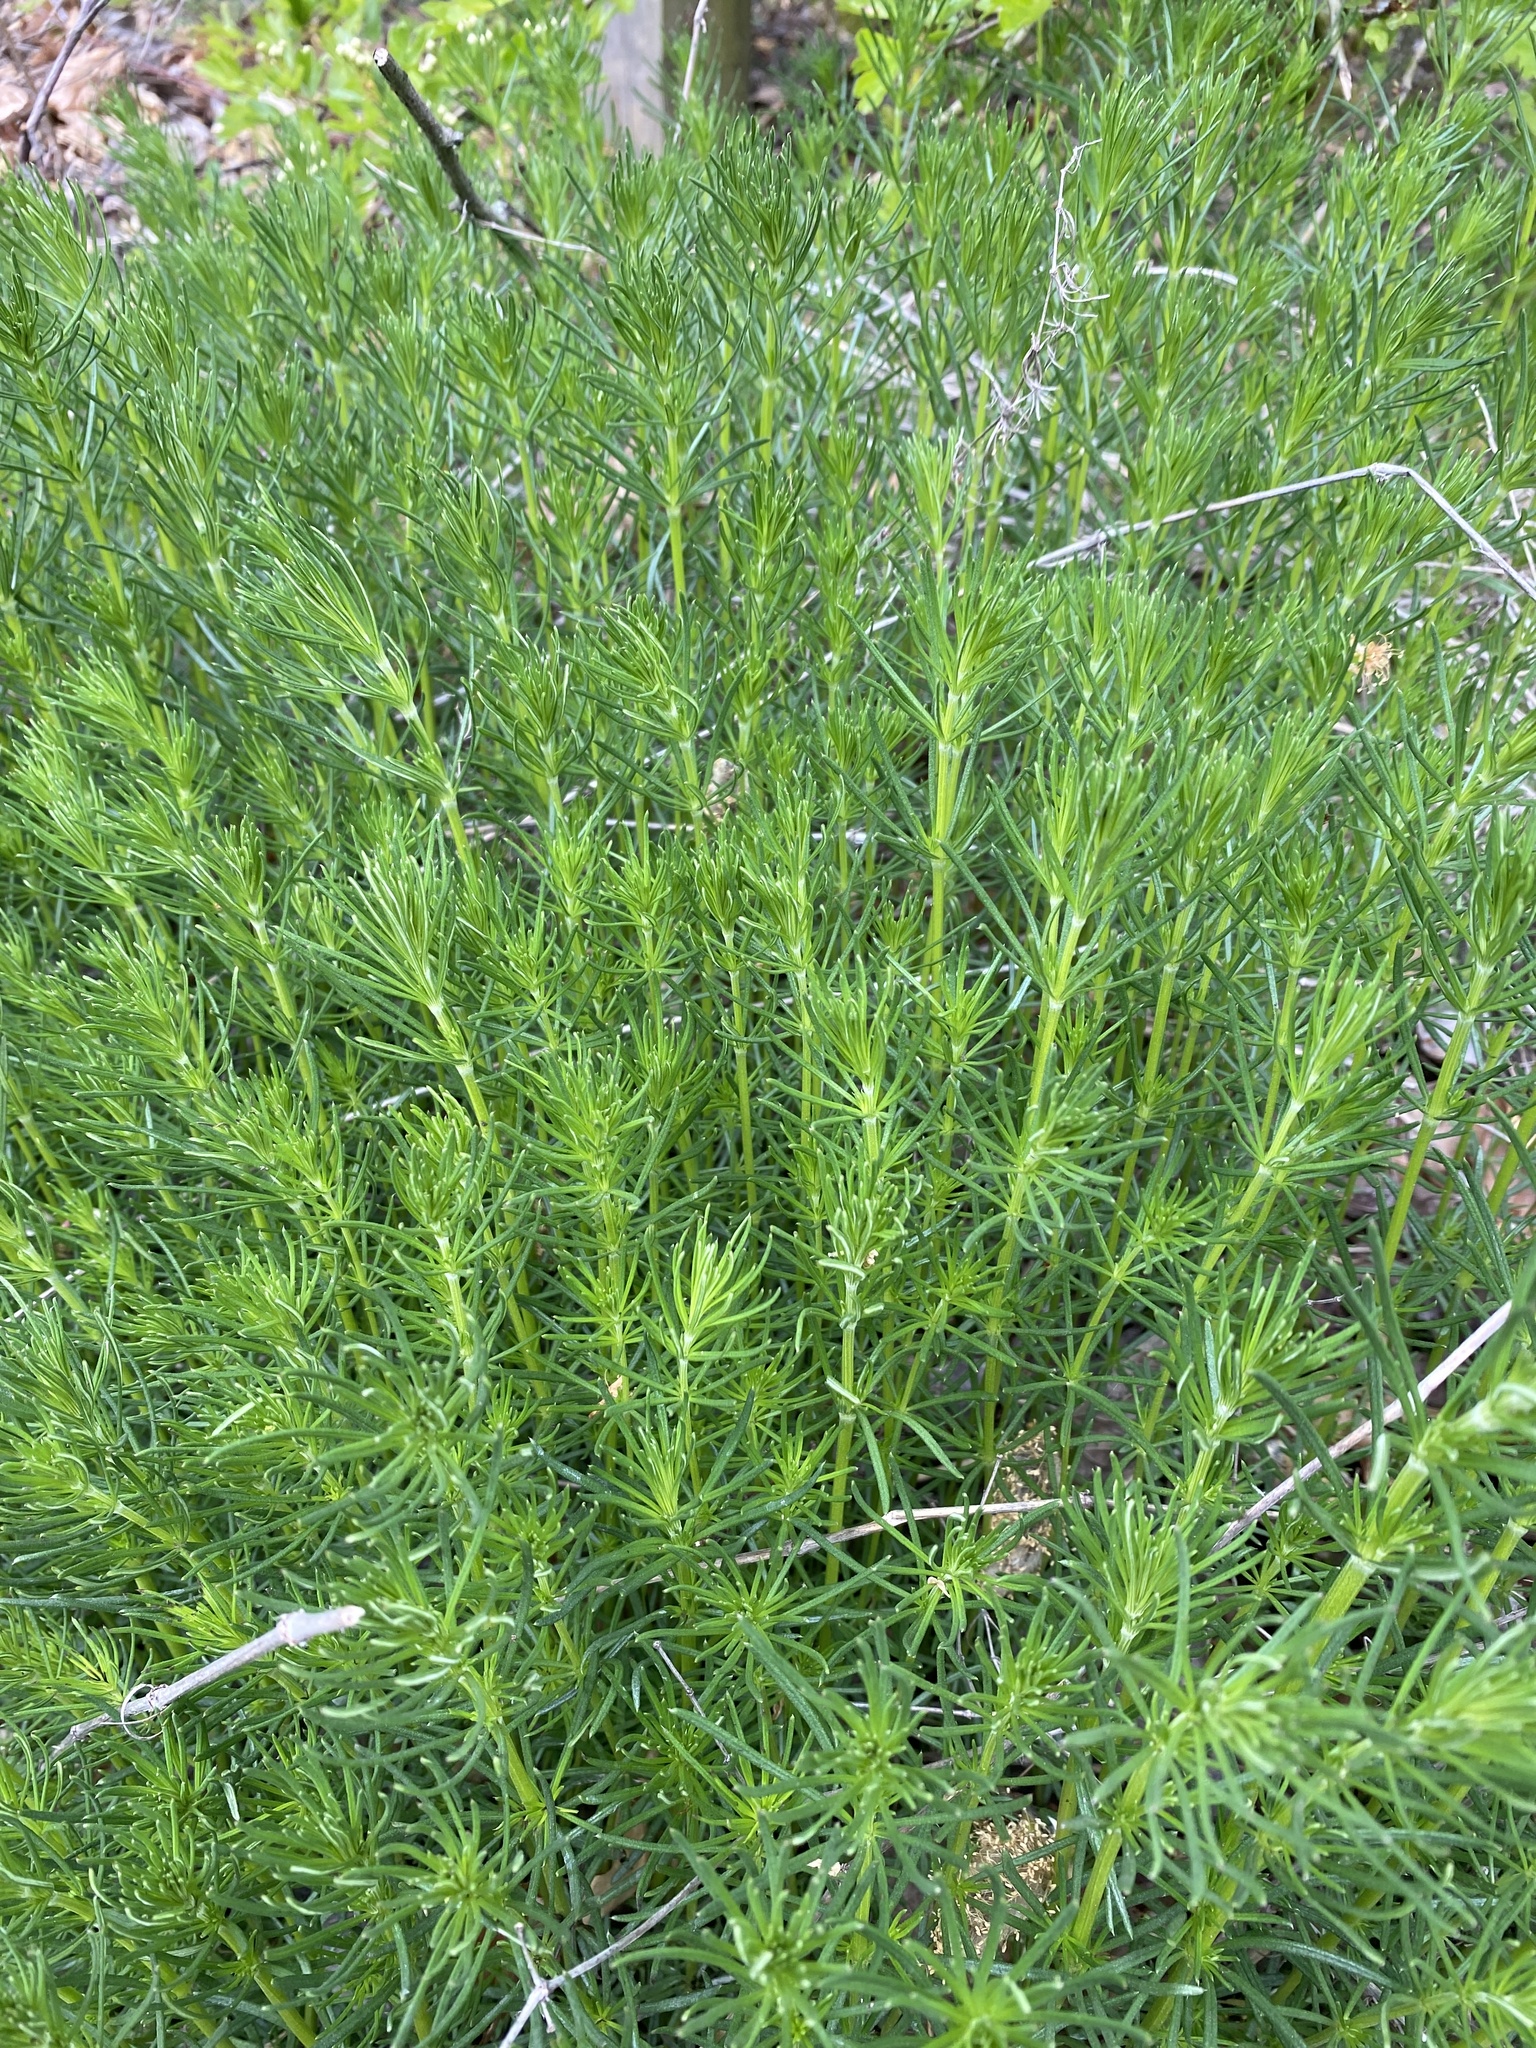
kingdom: Plantae
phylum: Tracheophyta
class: Magnoliopsida
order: Gentianales
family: Rubiaceae
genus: Galium
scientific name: Galium verum
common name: Lady's bedstraw
